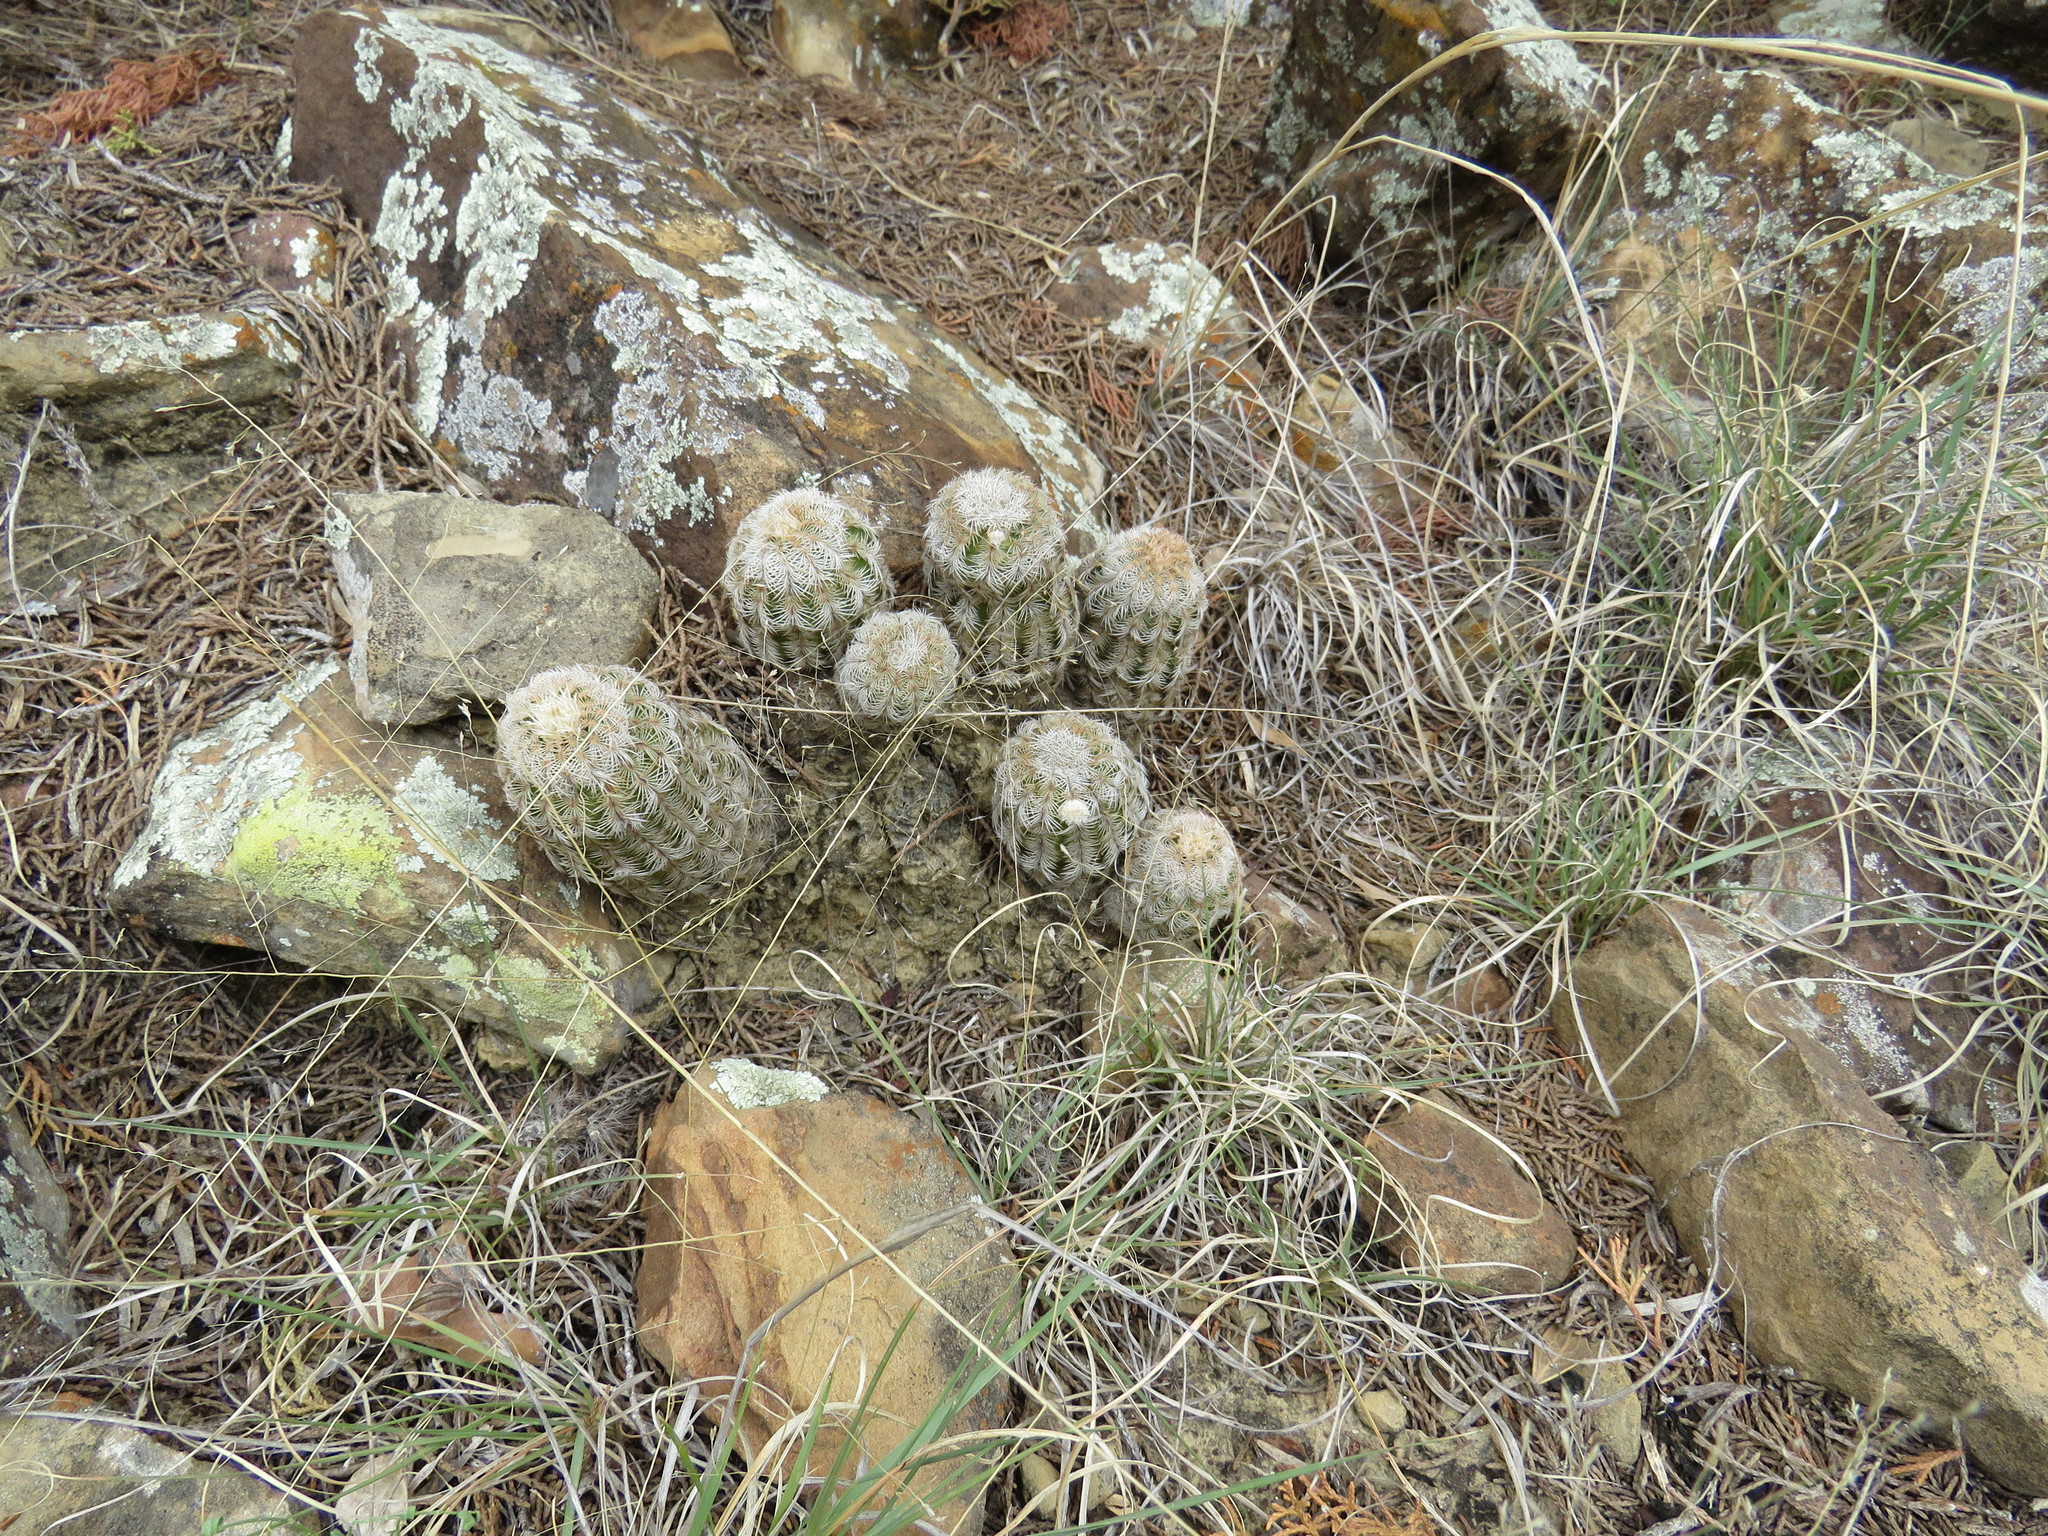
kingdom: Plantae
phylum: Tracheophyta
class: Magnoliopsida
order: Caryophyllales
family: Cactaceae
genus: Echinocereus
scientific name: Echinocereus reichenbachii
